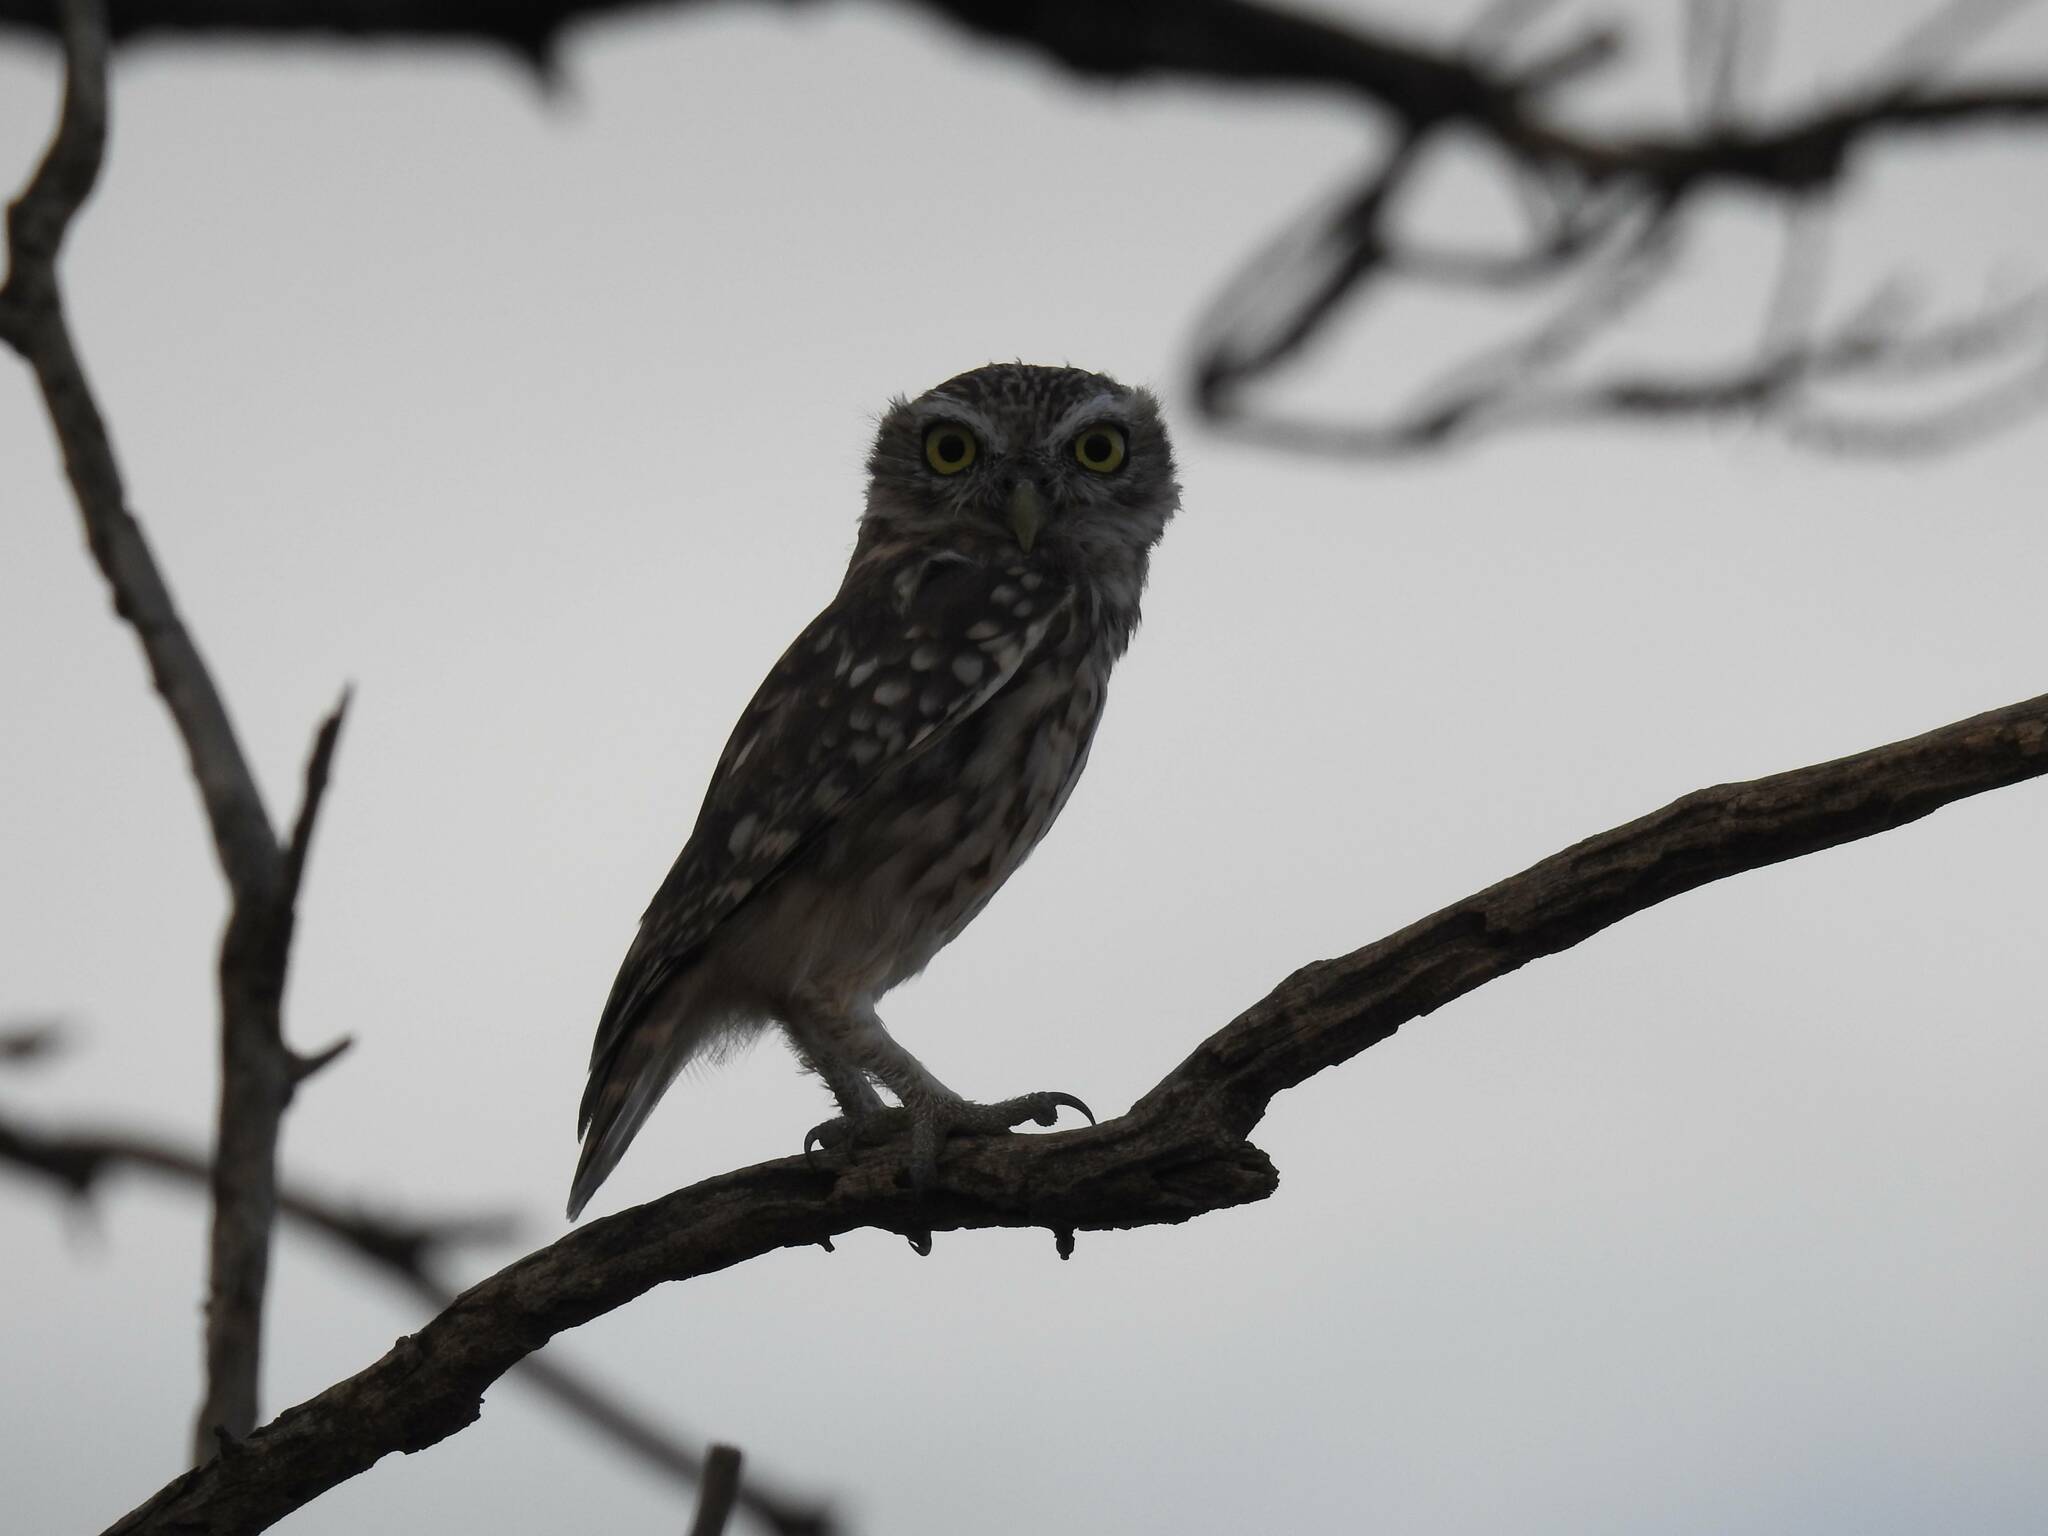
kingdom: Animalia
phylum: Chordata
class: Aves
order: Strigiformes
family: Strigidae
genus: Athene
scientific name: Athene noctua
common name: Little owl
